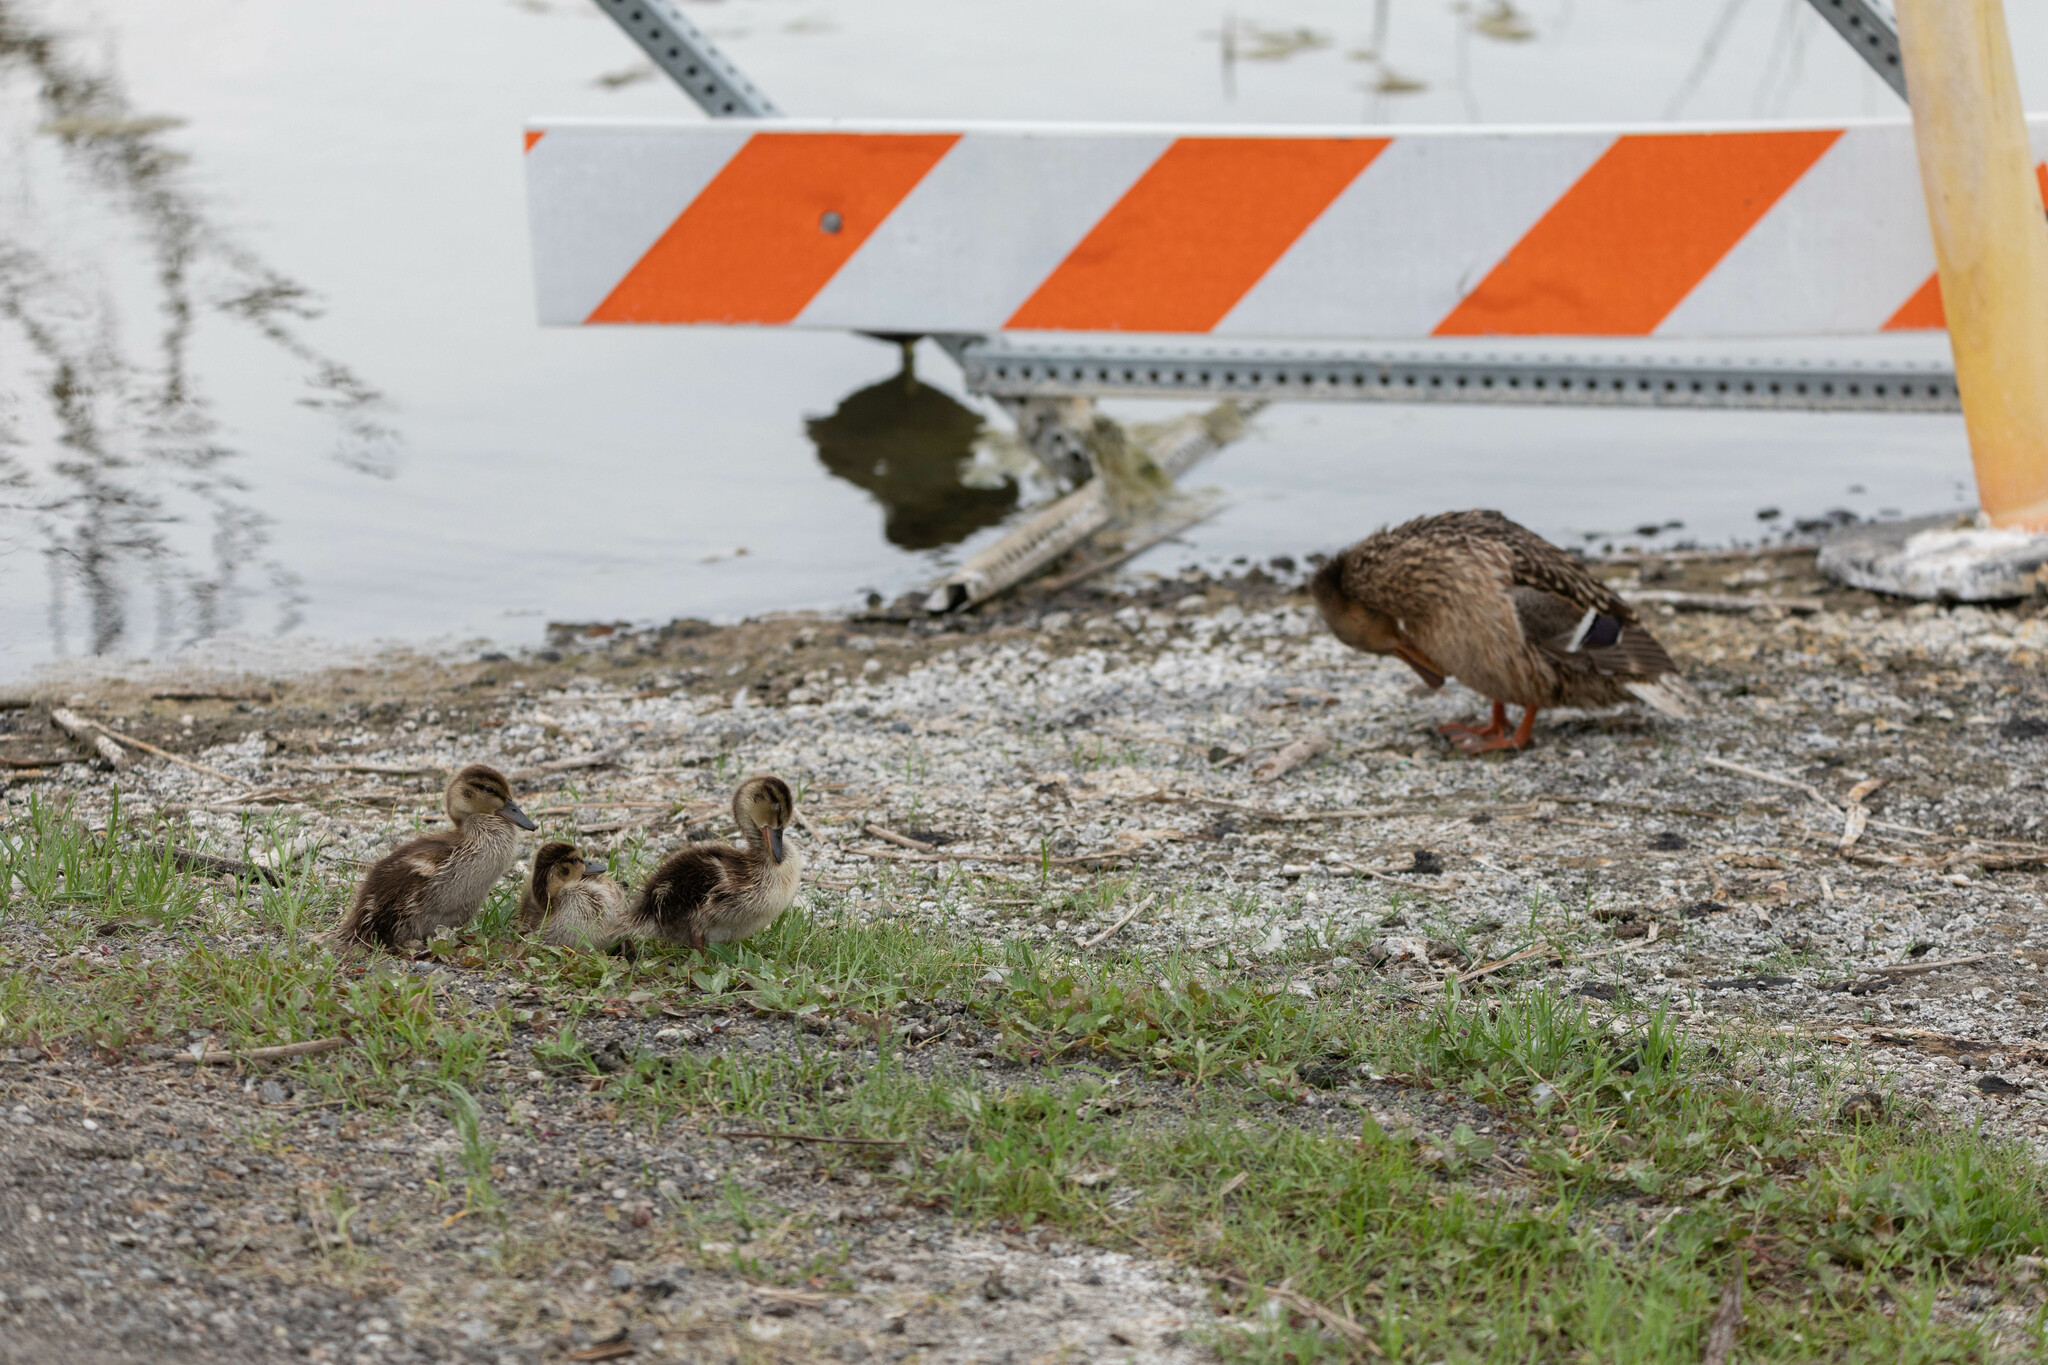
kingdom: Animalia
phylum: Chordata
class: Aves
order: Anseriformes
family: Anatidae
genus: Anas
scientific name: Anas platyrhynchos
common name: Mallard
